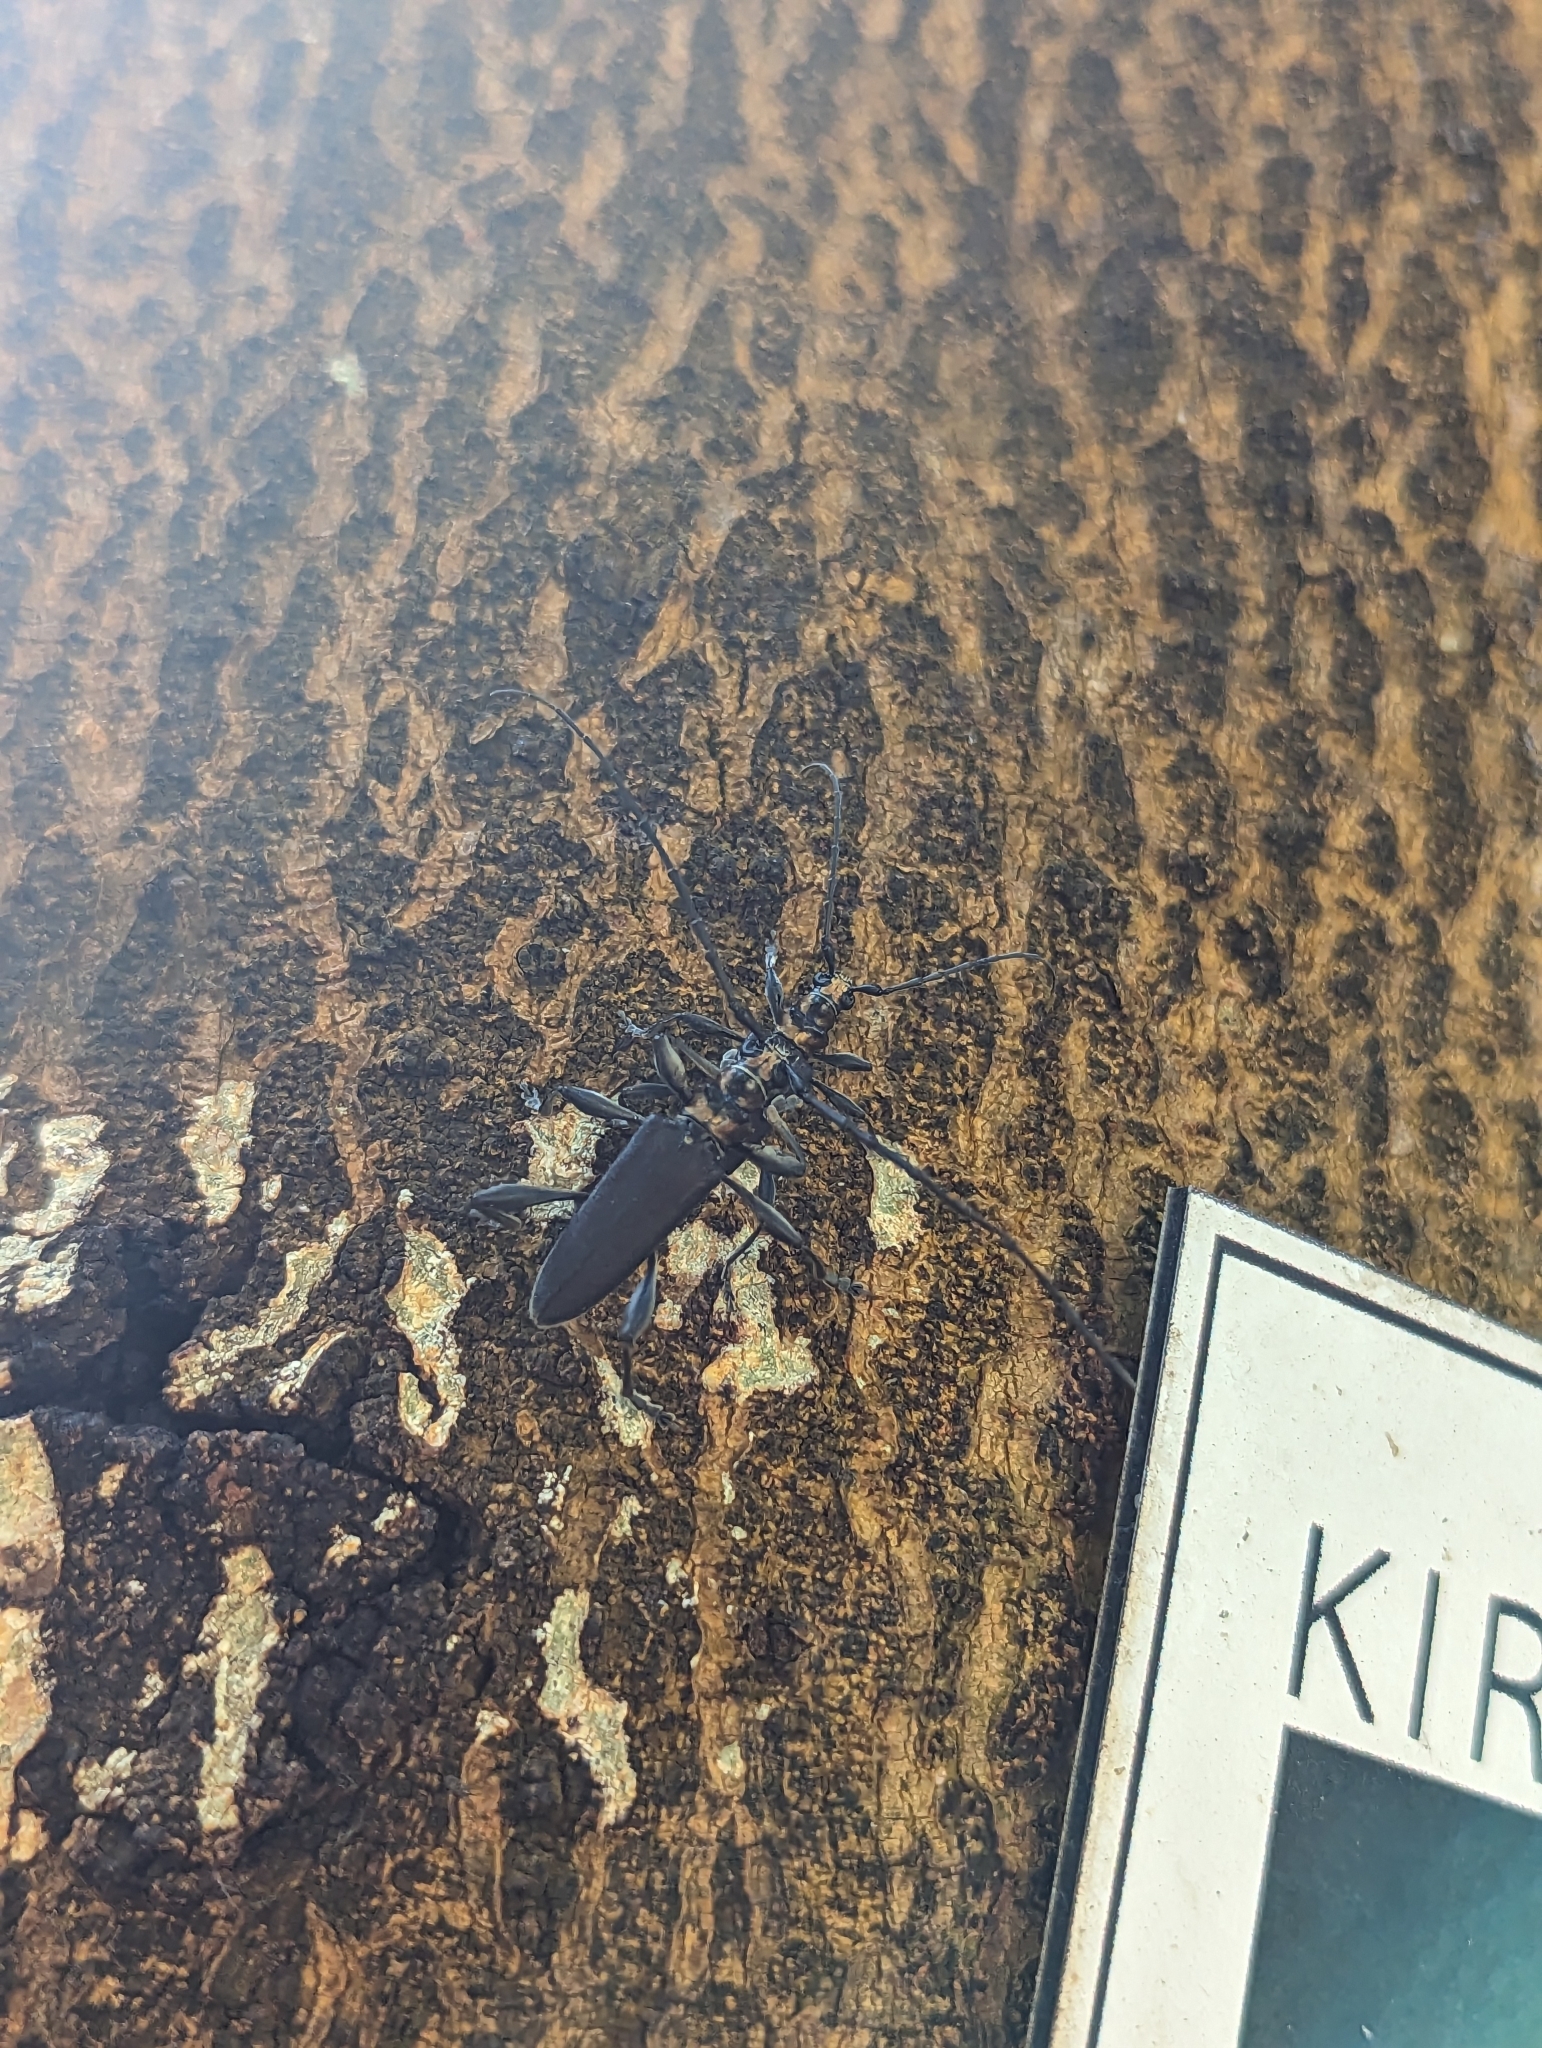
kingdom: Animalia
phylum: Arthropoda
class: Insecta
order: Coleoptera
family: Cerambycidae
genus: Ochimus
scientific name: Ochimus grobbelaarae
